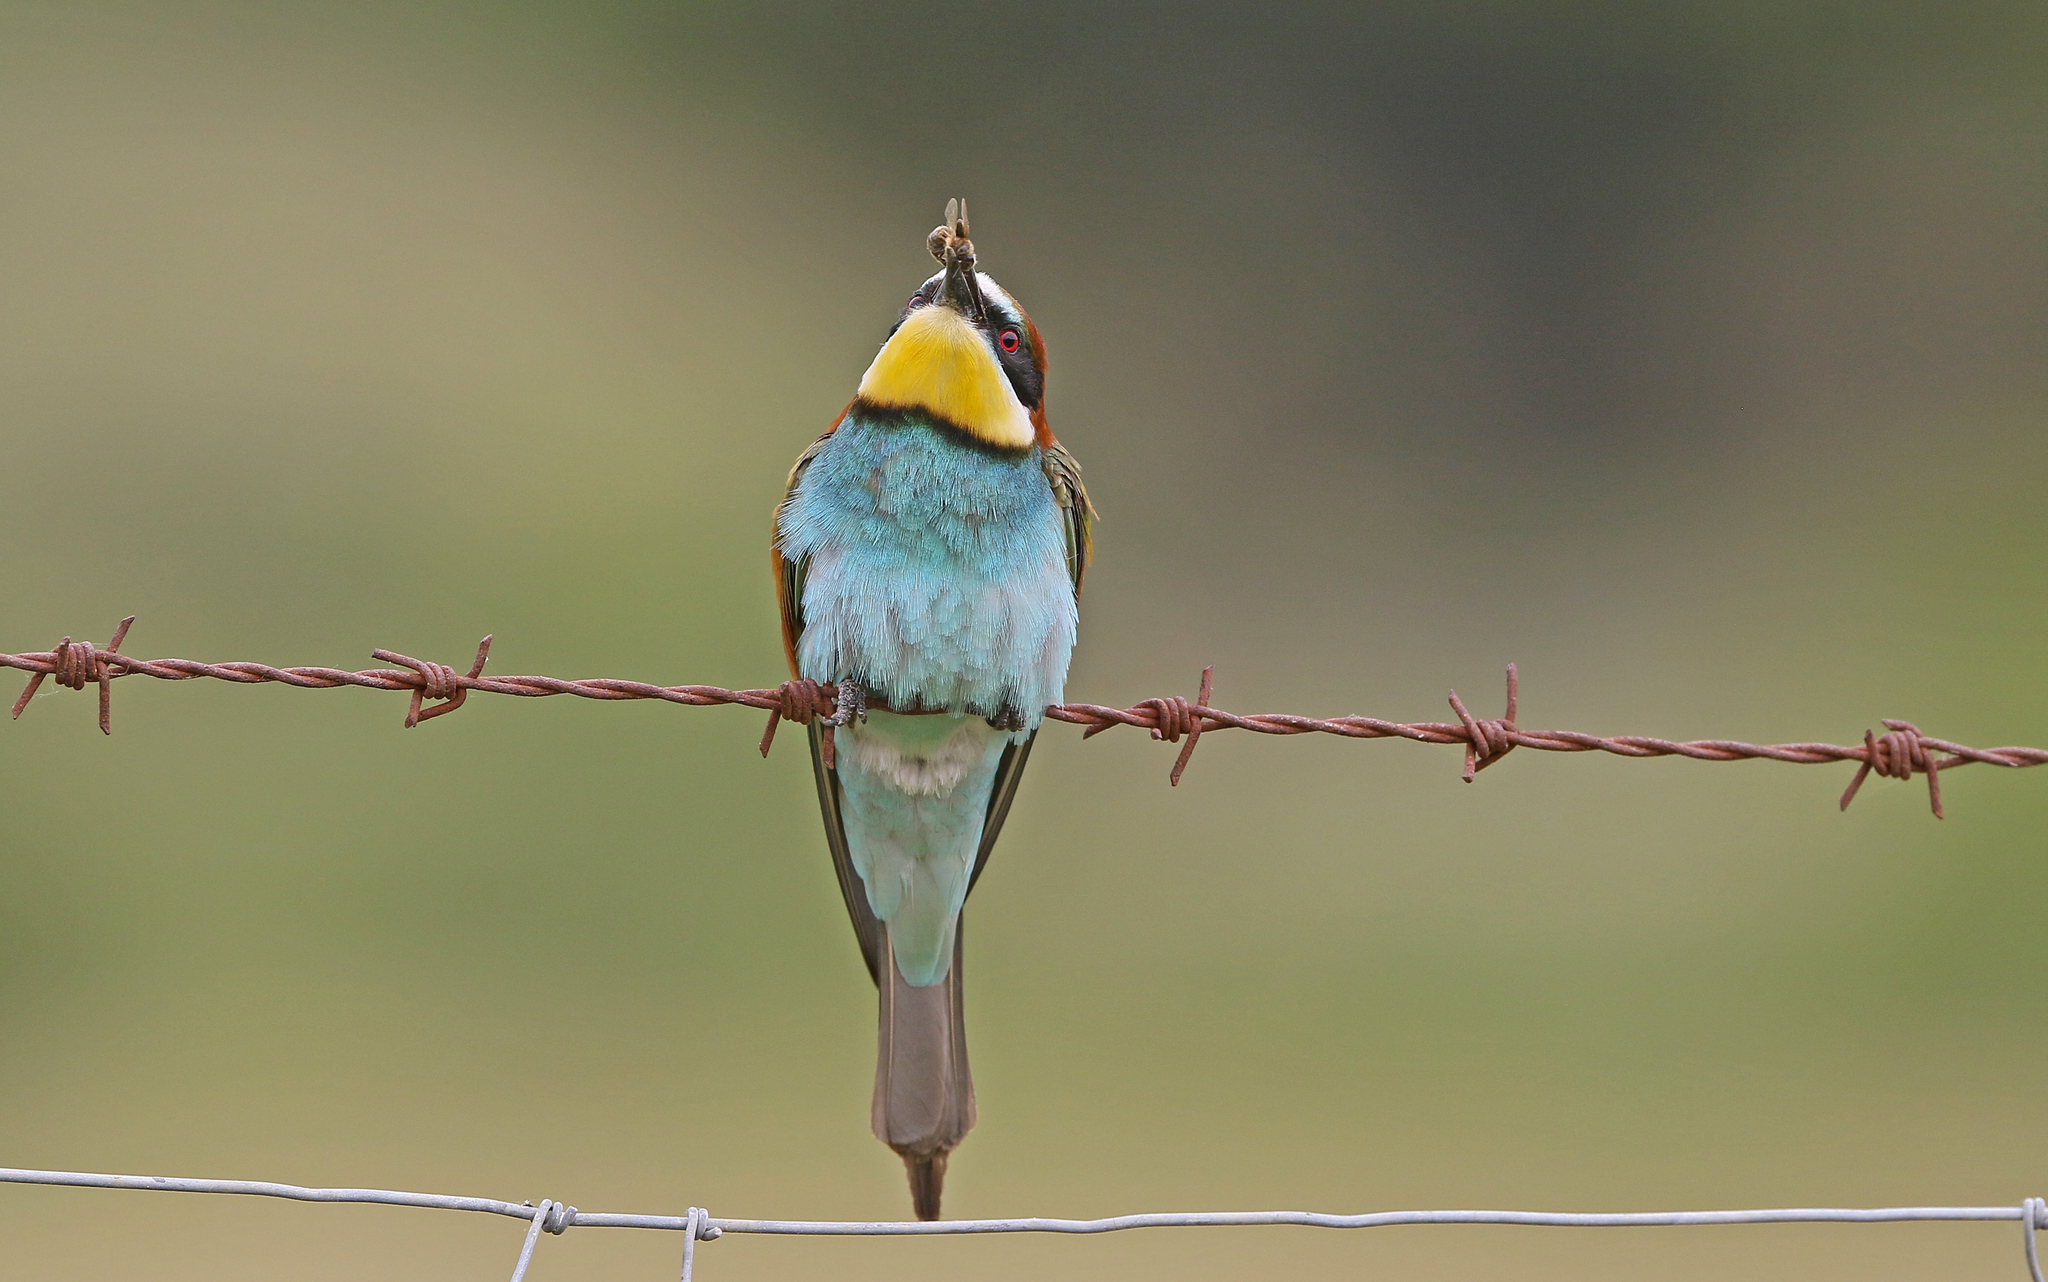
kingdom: Animalia
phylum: Chordata
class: Aves
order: Coraciiformes
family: Meropidae
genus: Merops
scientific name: Merops apiaster
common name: European bee-eater
